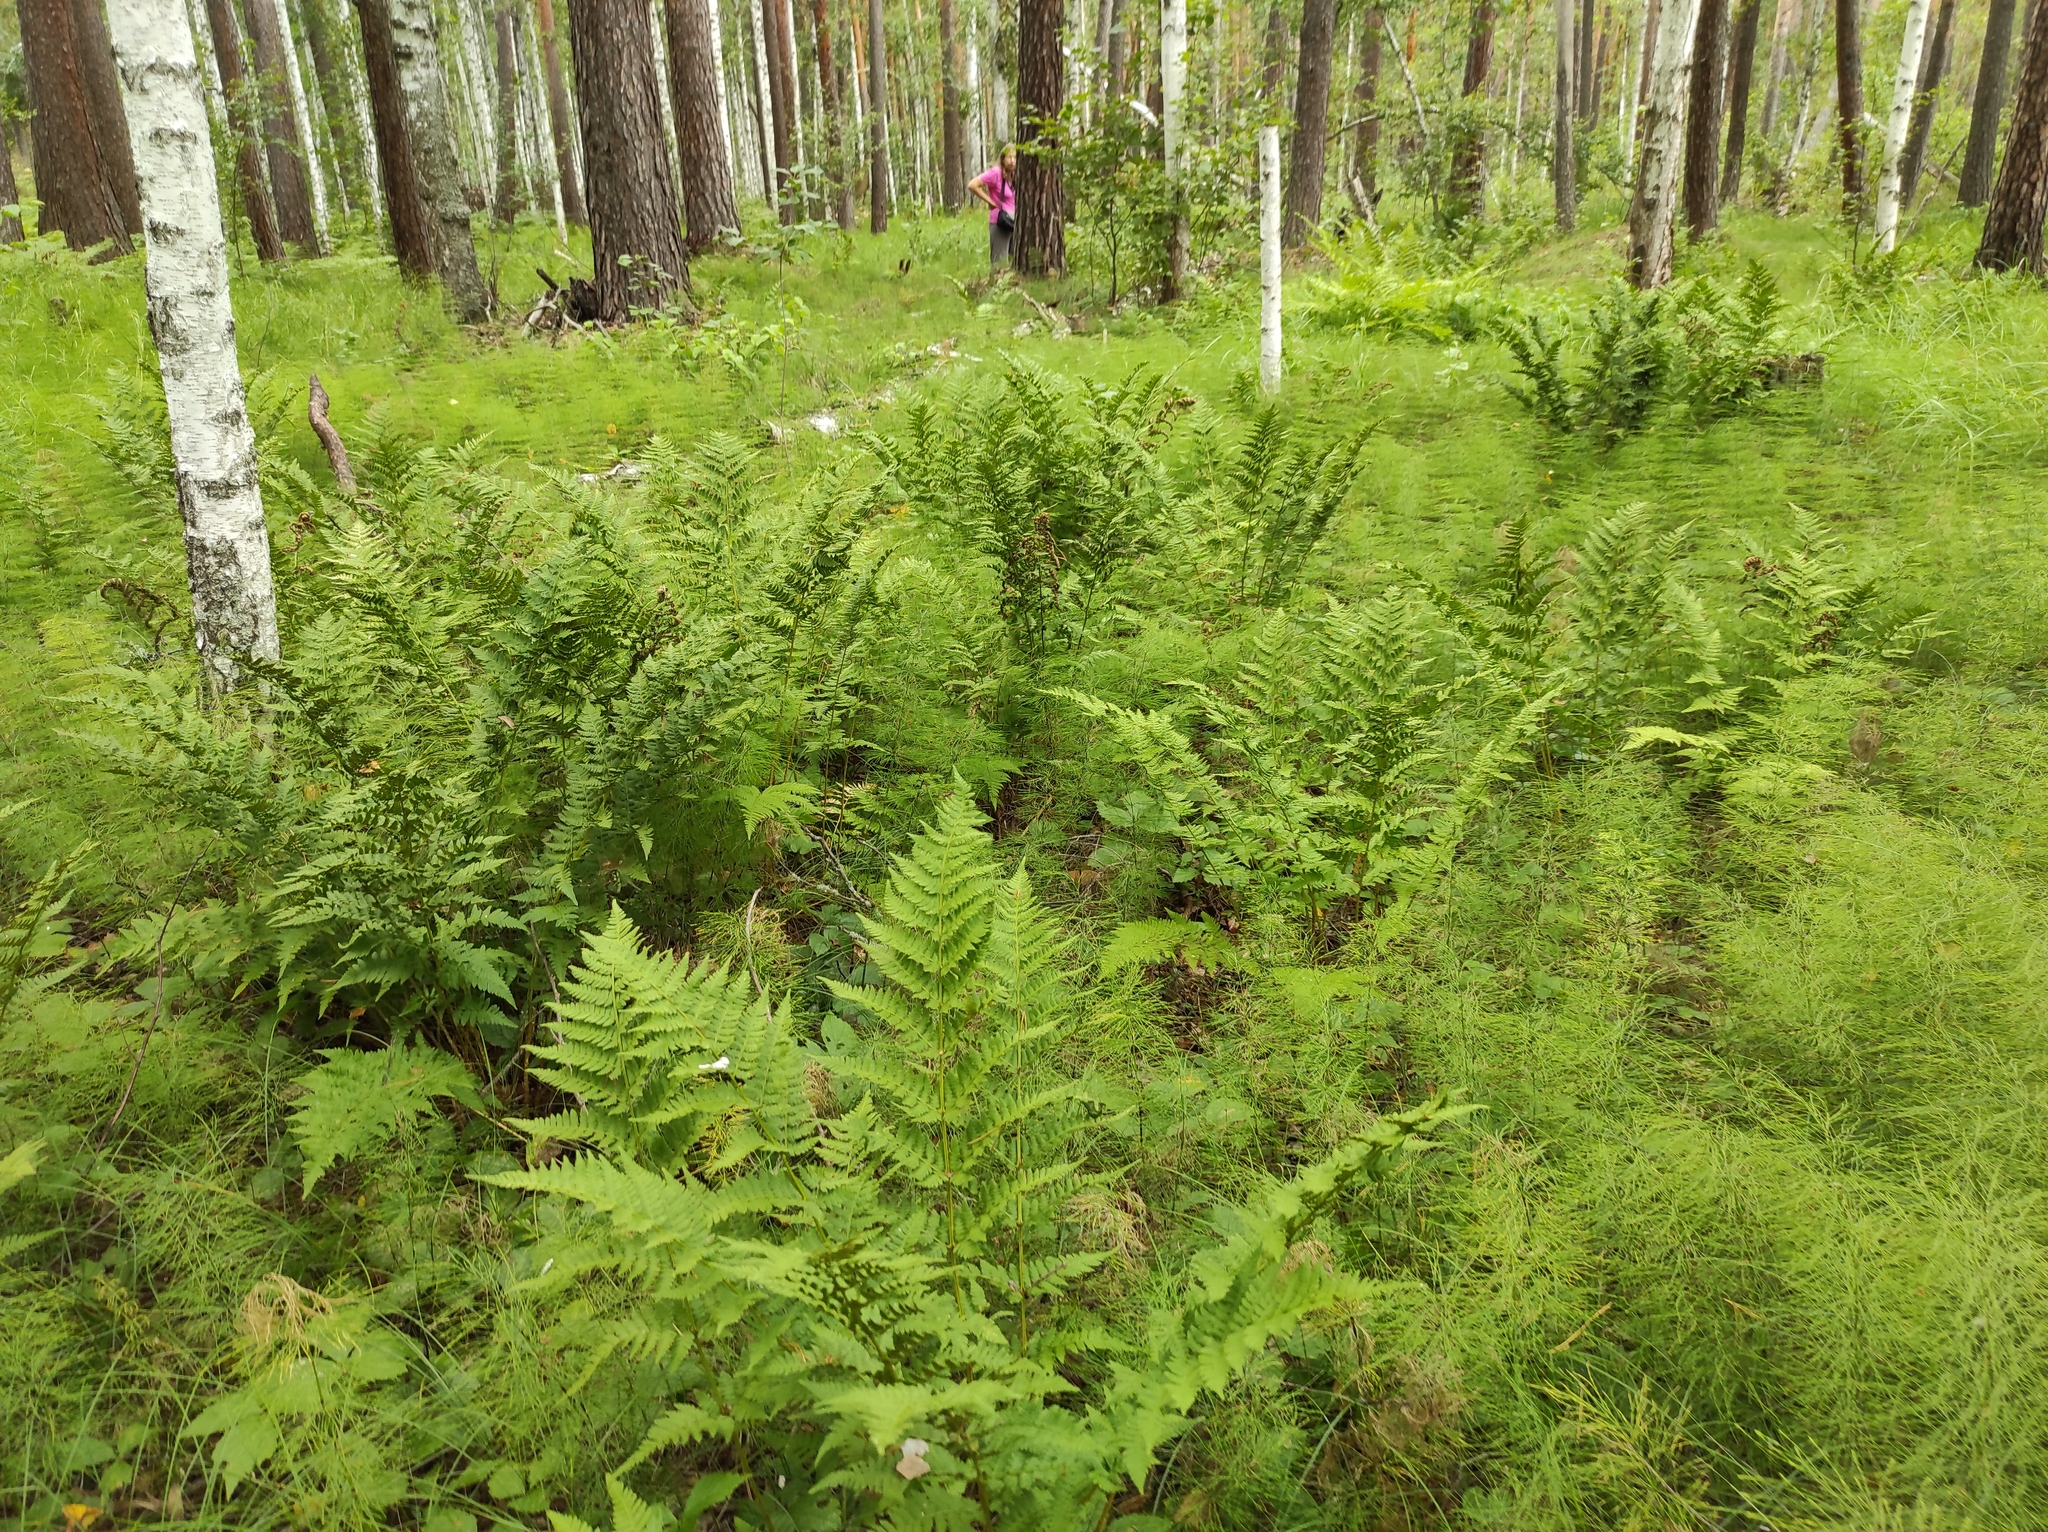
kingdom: Plantae
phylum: Tracheophyta
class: Polypodiopsida
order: Polypodiales
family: Dryopteridaceae
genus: Dryopteris
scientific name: Dryopteris carthusiana
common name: Narrow buckler-fern
